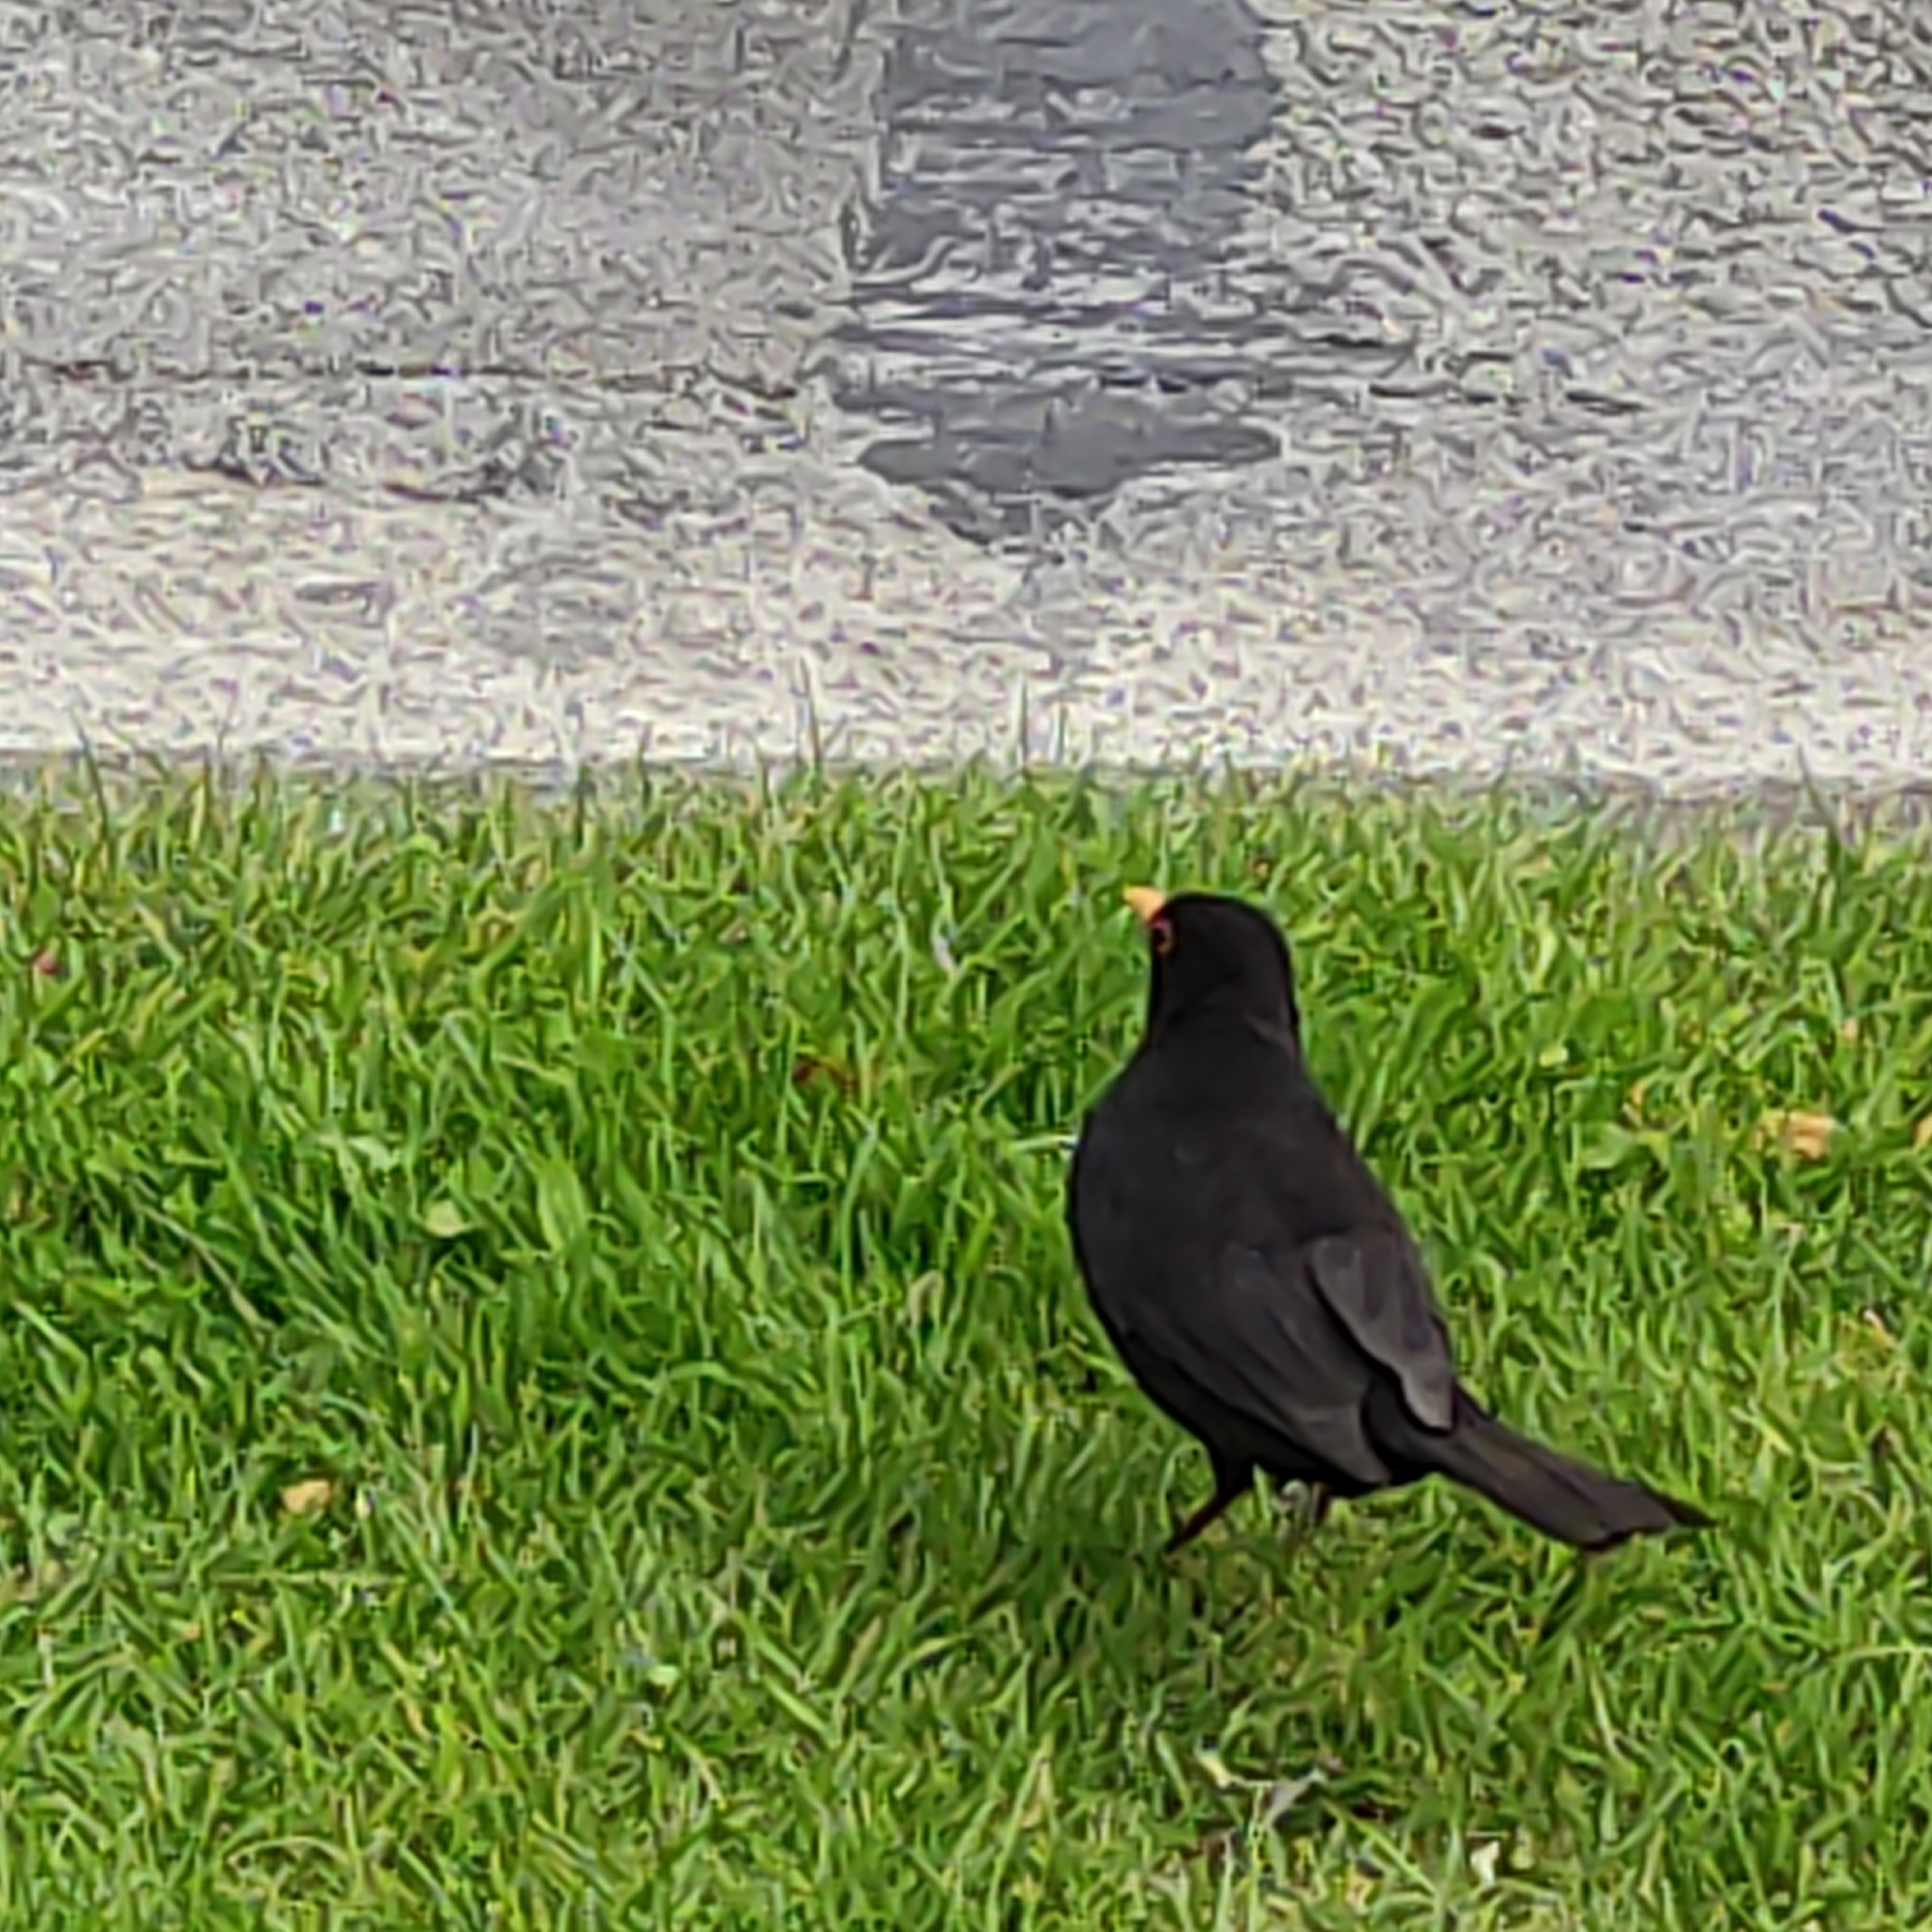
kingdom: Animalia
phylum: Chordata
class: Aves
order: Passeriformes
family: Turdidae
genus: Turdus
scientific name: Turdus merula
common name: Common blackbird
